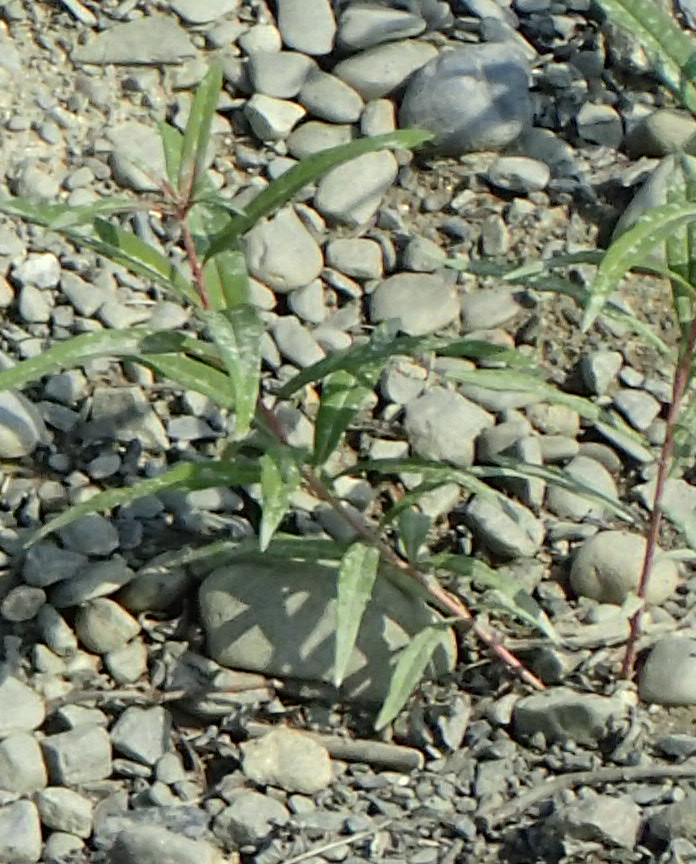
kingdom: Plantae
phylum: Tracheophyta
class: Magnoliopsida
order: Myrtales
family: Onagraceae
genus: Chamaenerion
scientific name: Chamaenerion angustifolium
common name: Fireweed
